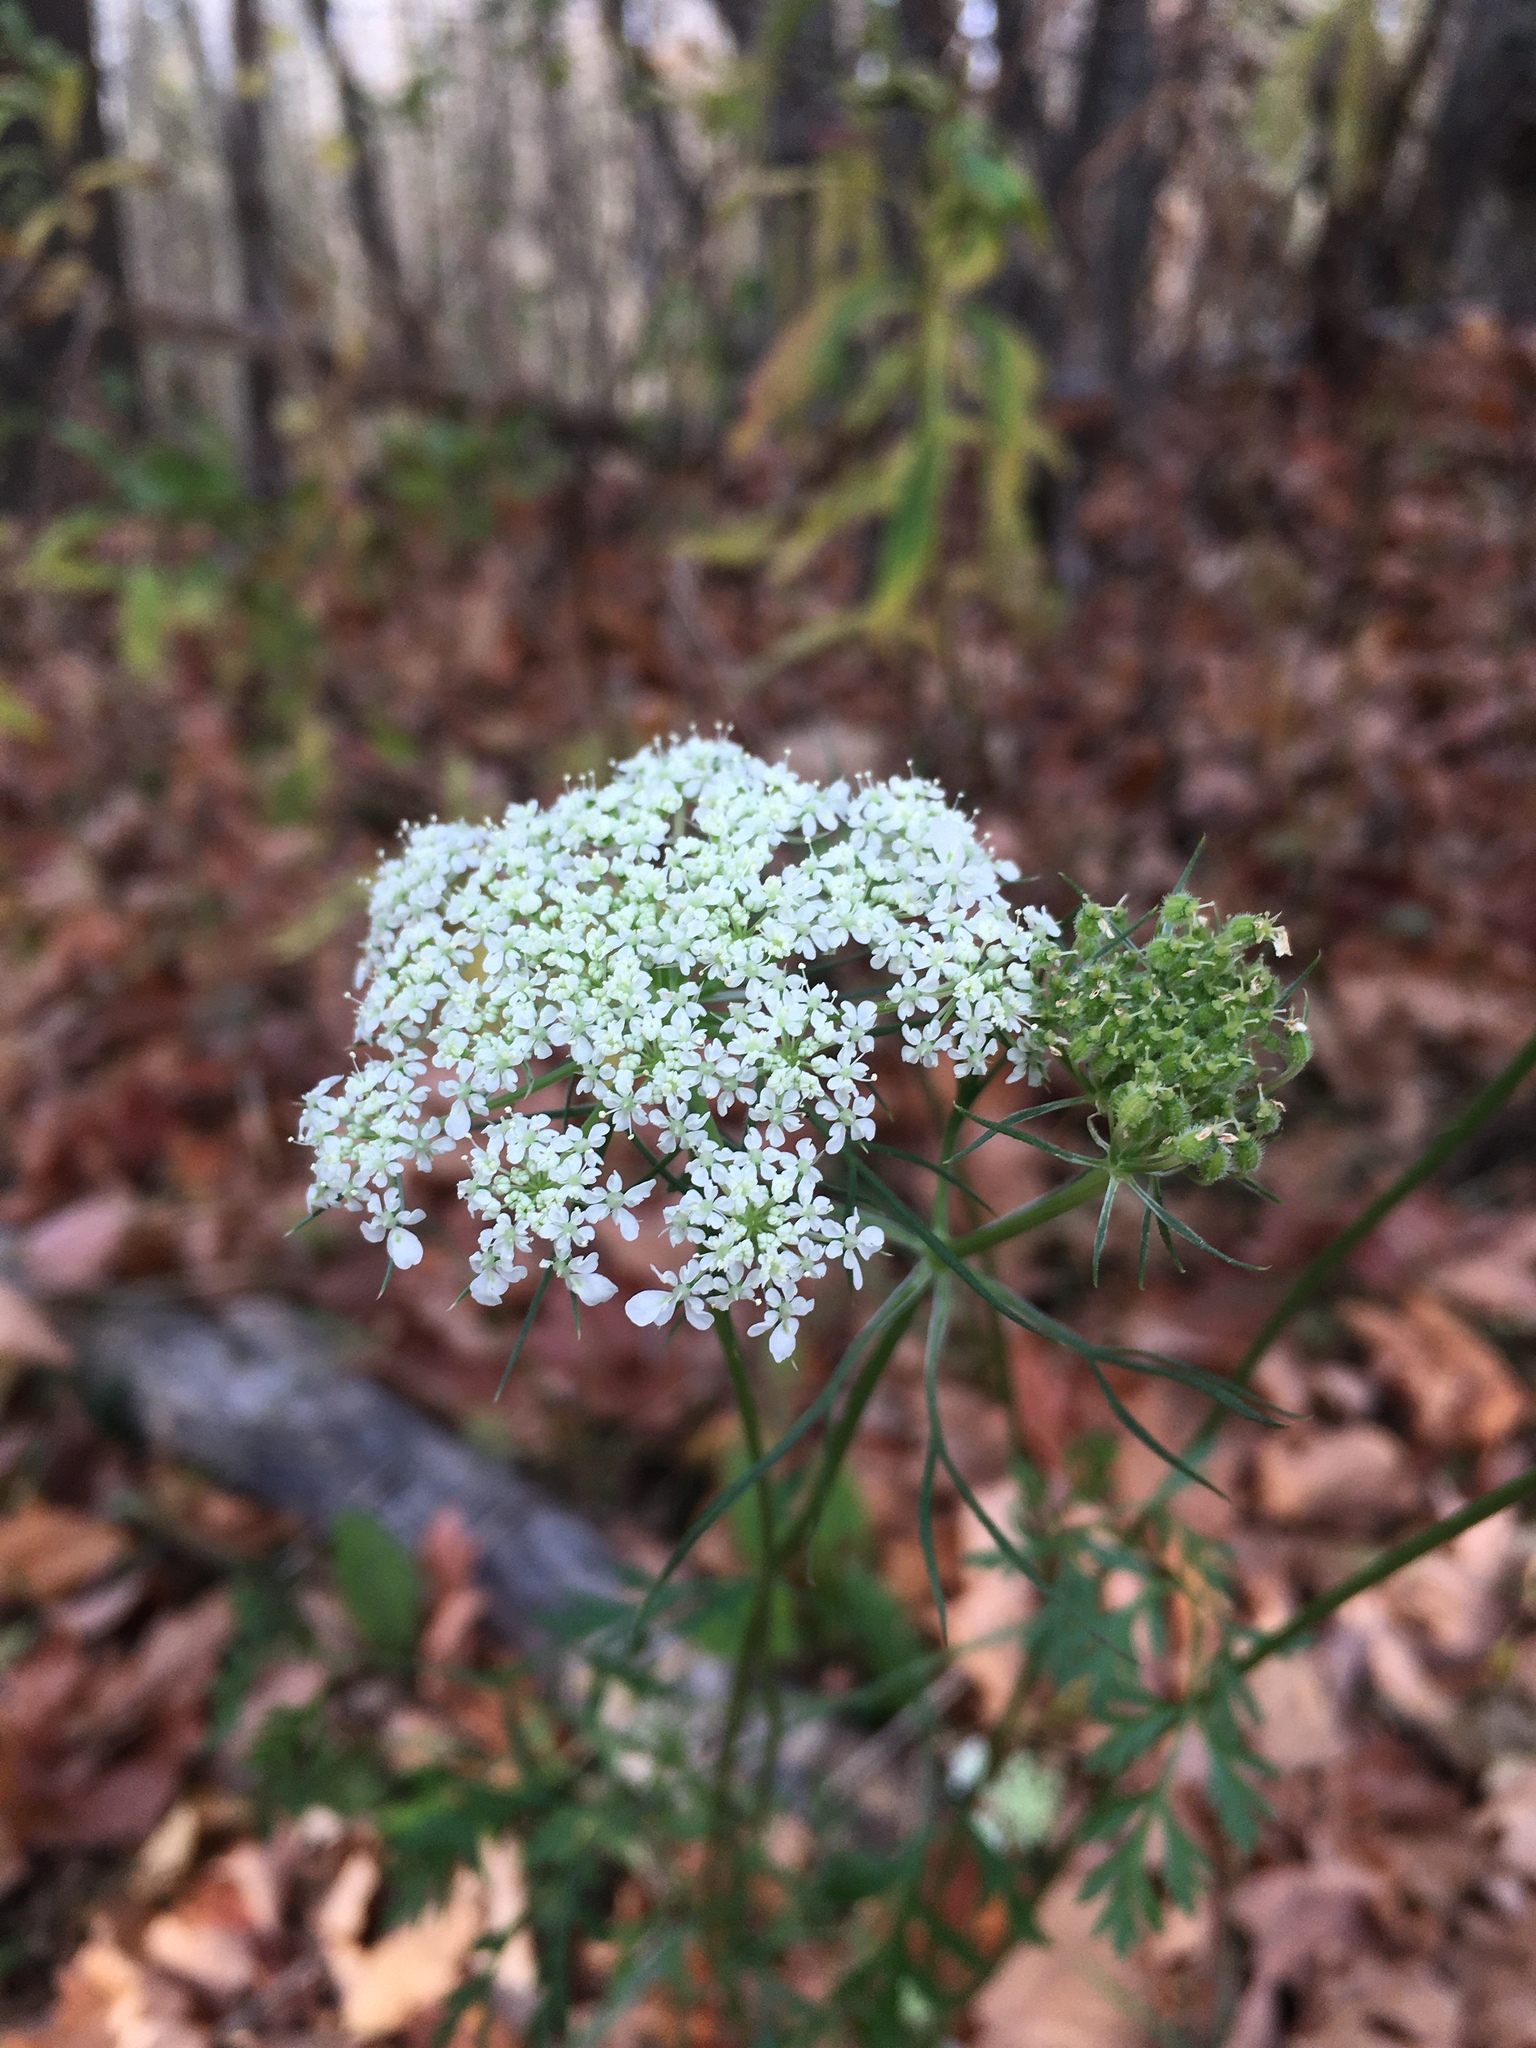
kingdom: Plantae
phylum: Tracheophyta
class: Magnoliopsida
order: Apiales
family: Apiaceae
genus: Daucus
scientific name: Daucus carota
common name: Wild carrot
